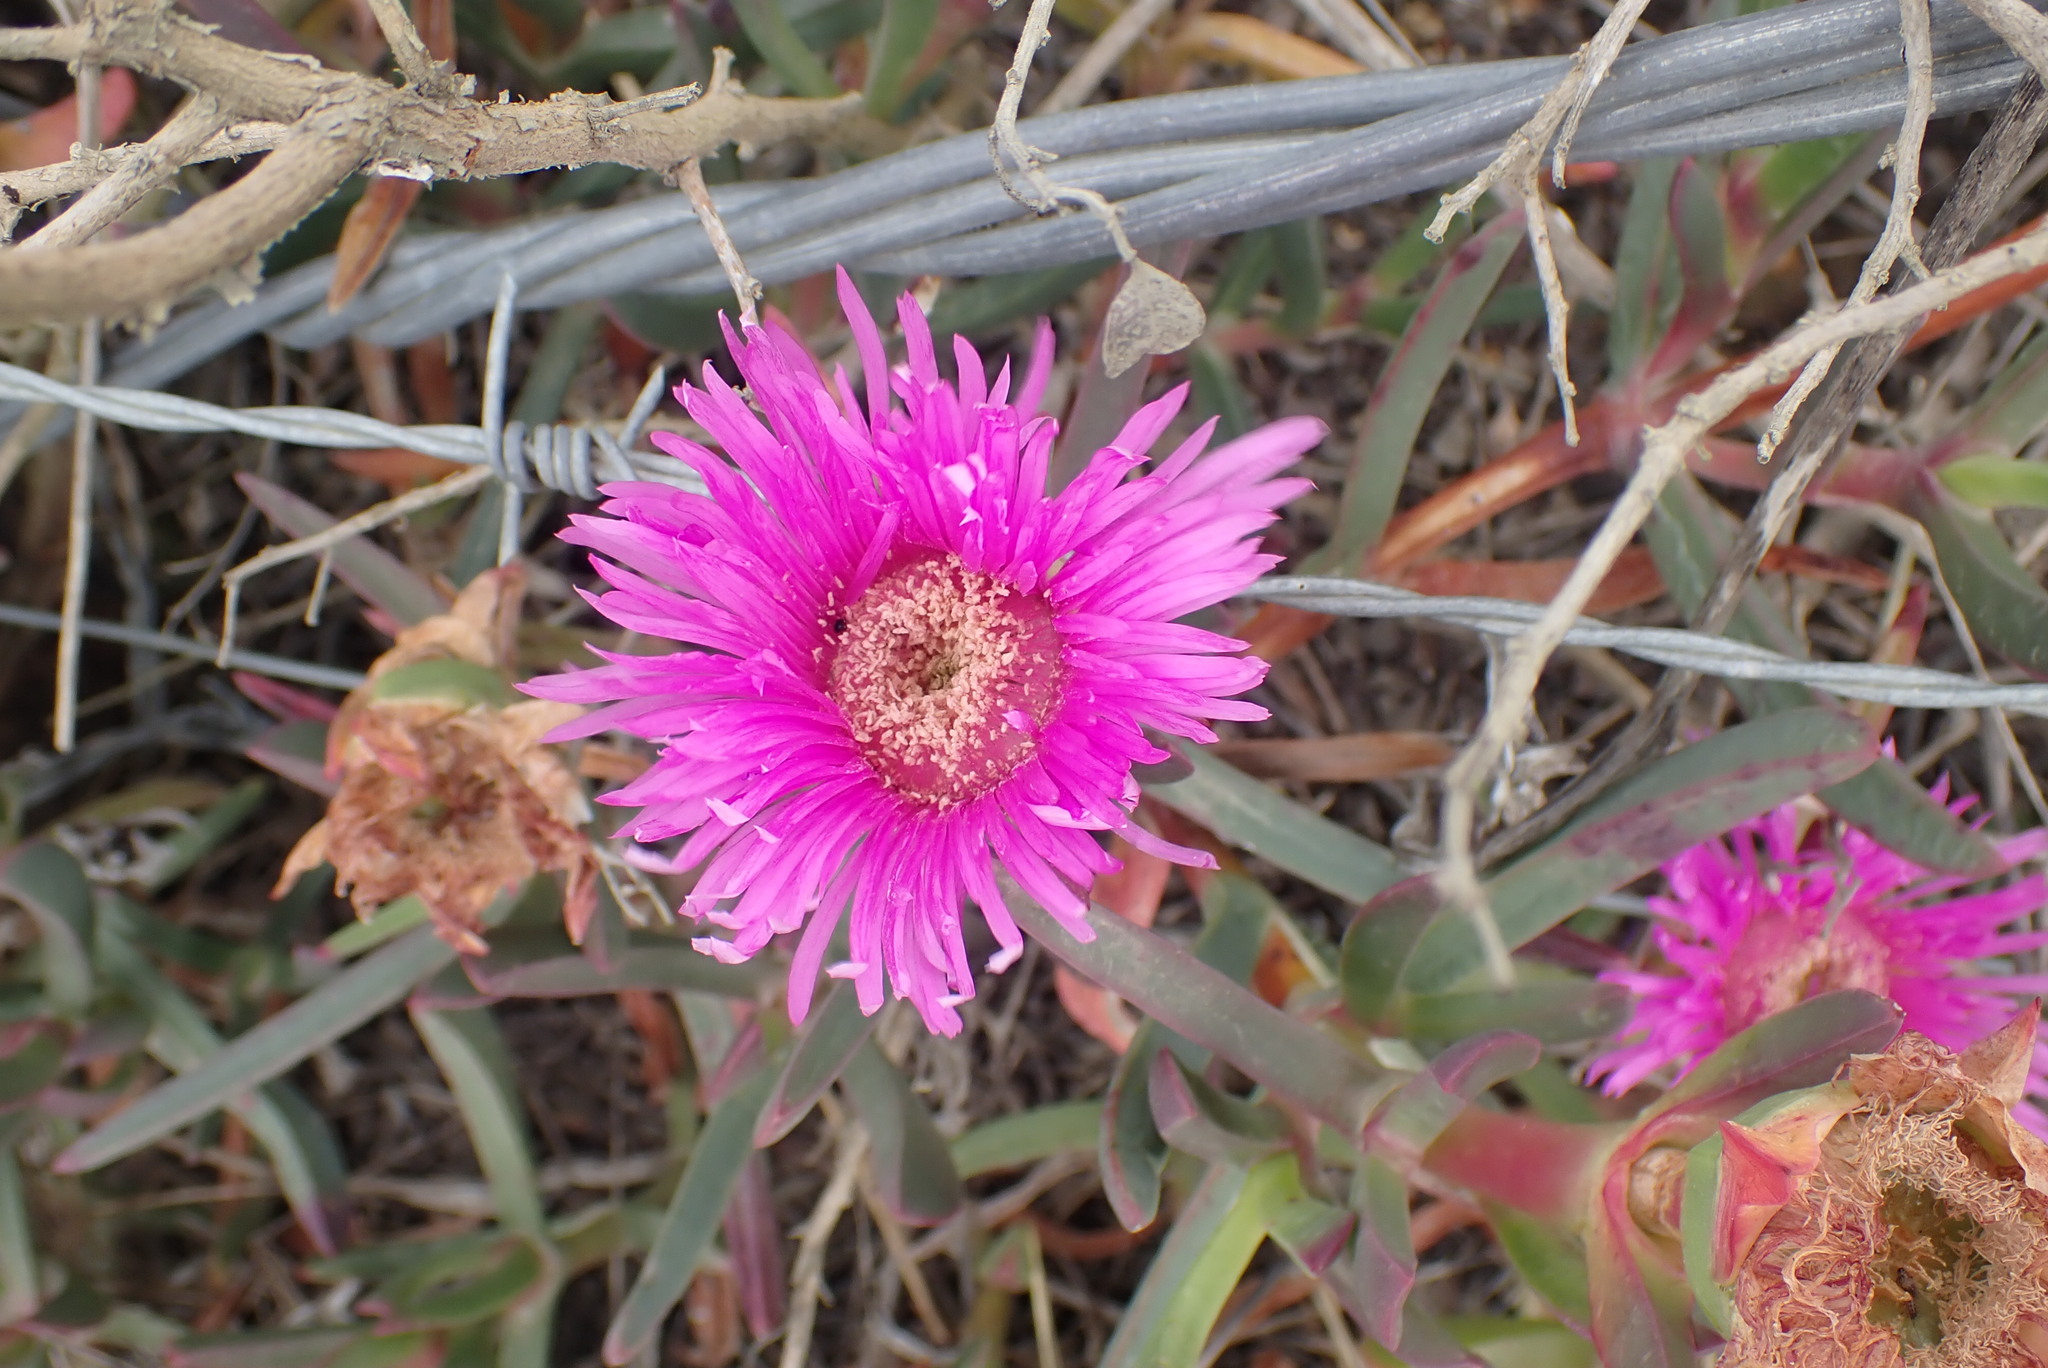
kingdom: Plantae
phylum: Tracheophyta
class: Magnoliopsida
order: Caryophyllales
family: Aizoaceae
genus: Carpobrotus
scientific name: Carpobrotus muirii
